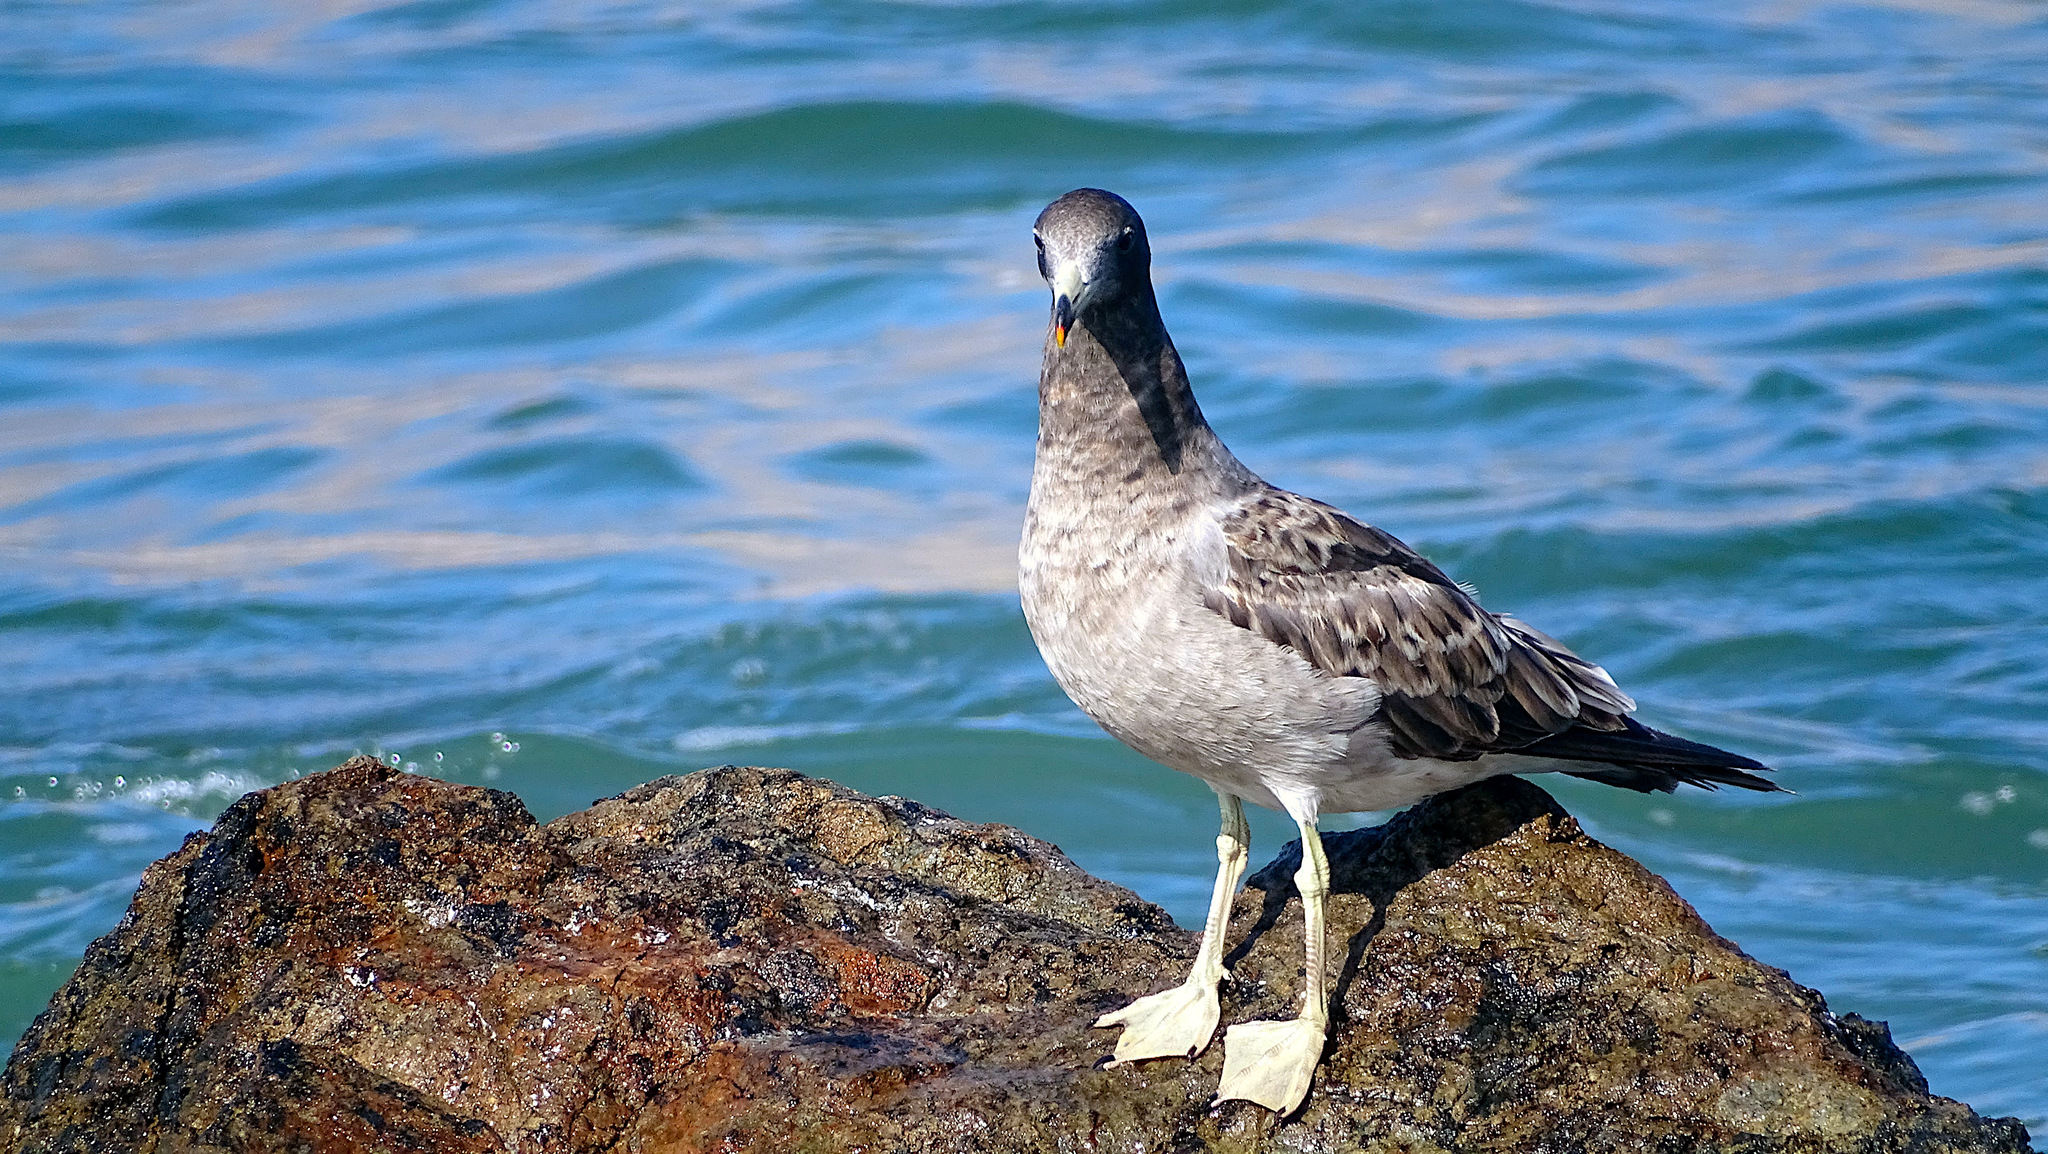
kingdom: Animalia
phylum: Chordata
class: Aves
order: Charadriiformes
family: Laridae
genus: Larus
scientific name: Larus belcheri
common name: Belcher's gull
